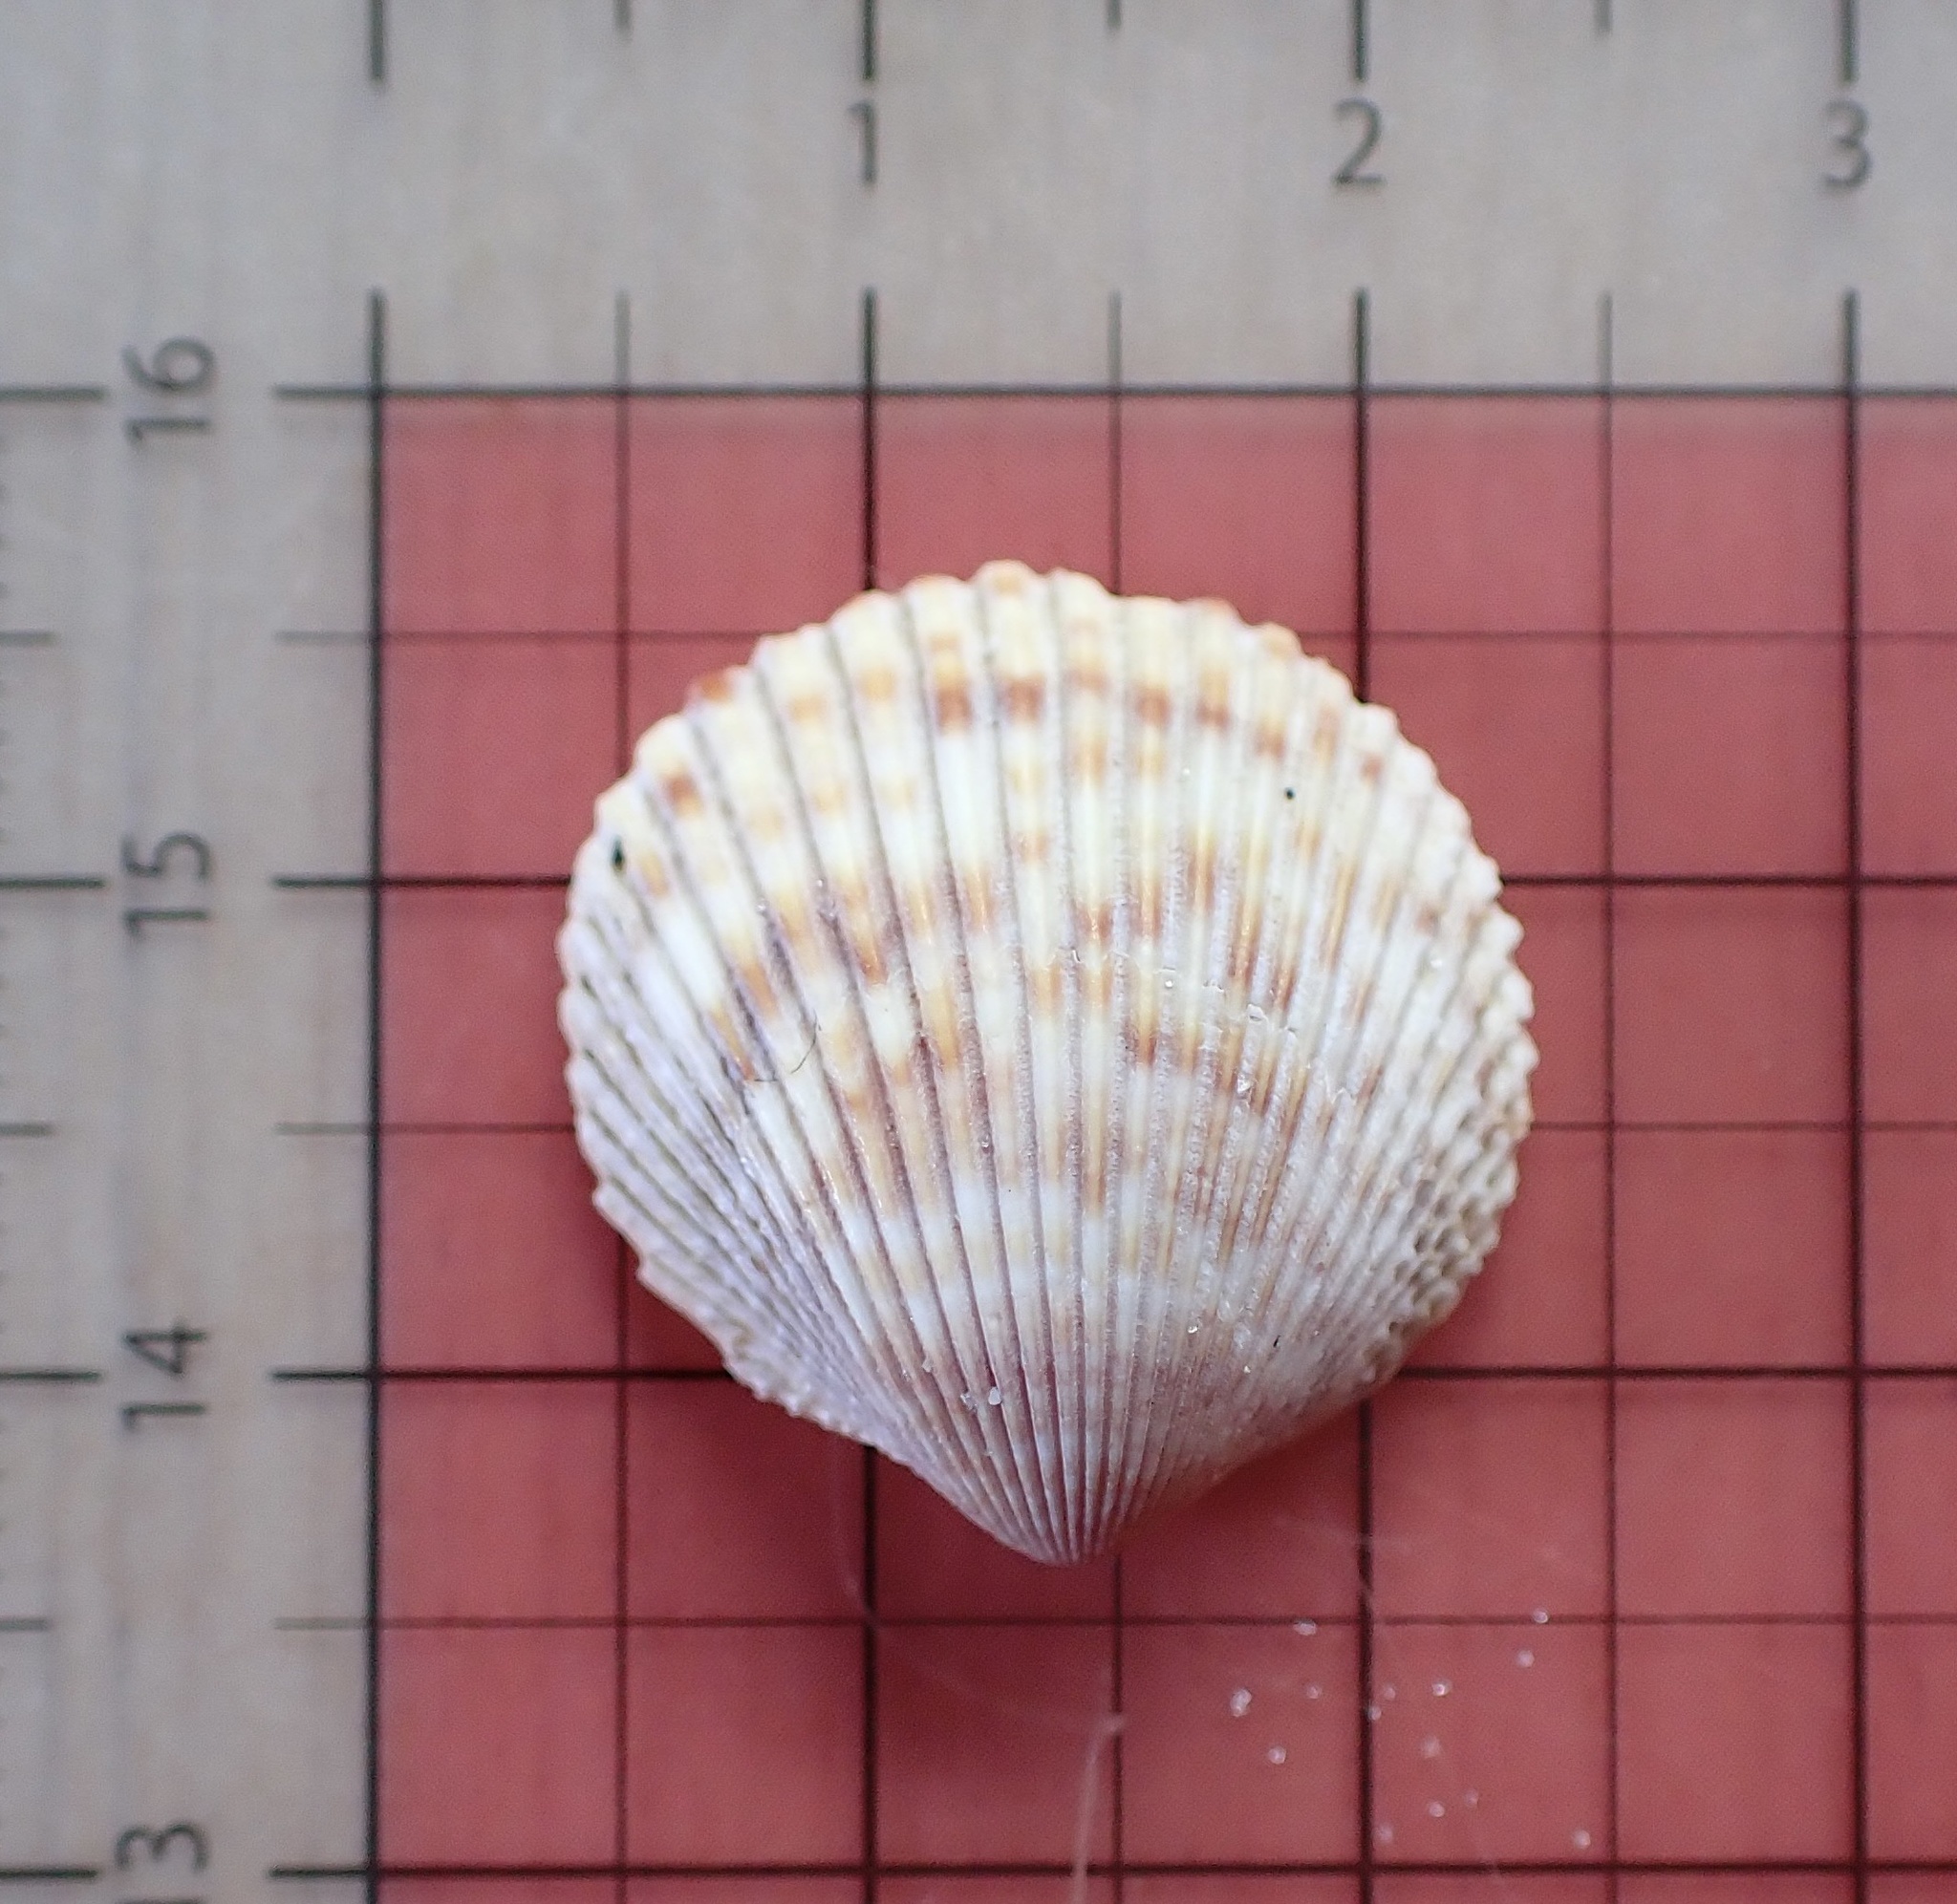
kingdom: Animalia
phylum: Mollusca
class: Bivalvia
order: Cardiida
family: Cardiidae
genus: Dallocardia
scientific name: Dallocardia muricata
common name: Yellow pricklycockle
